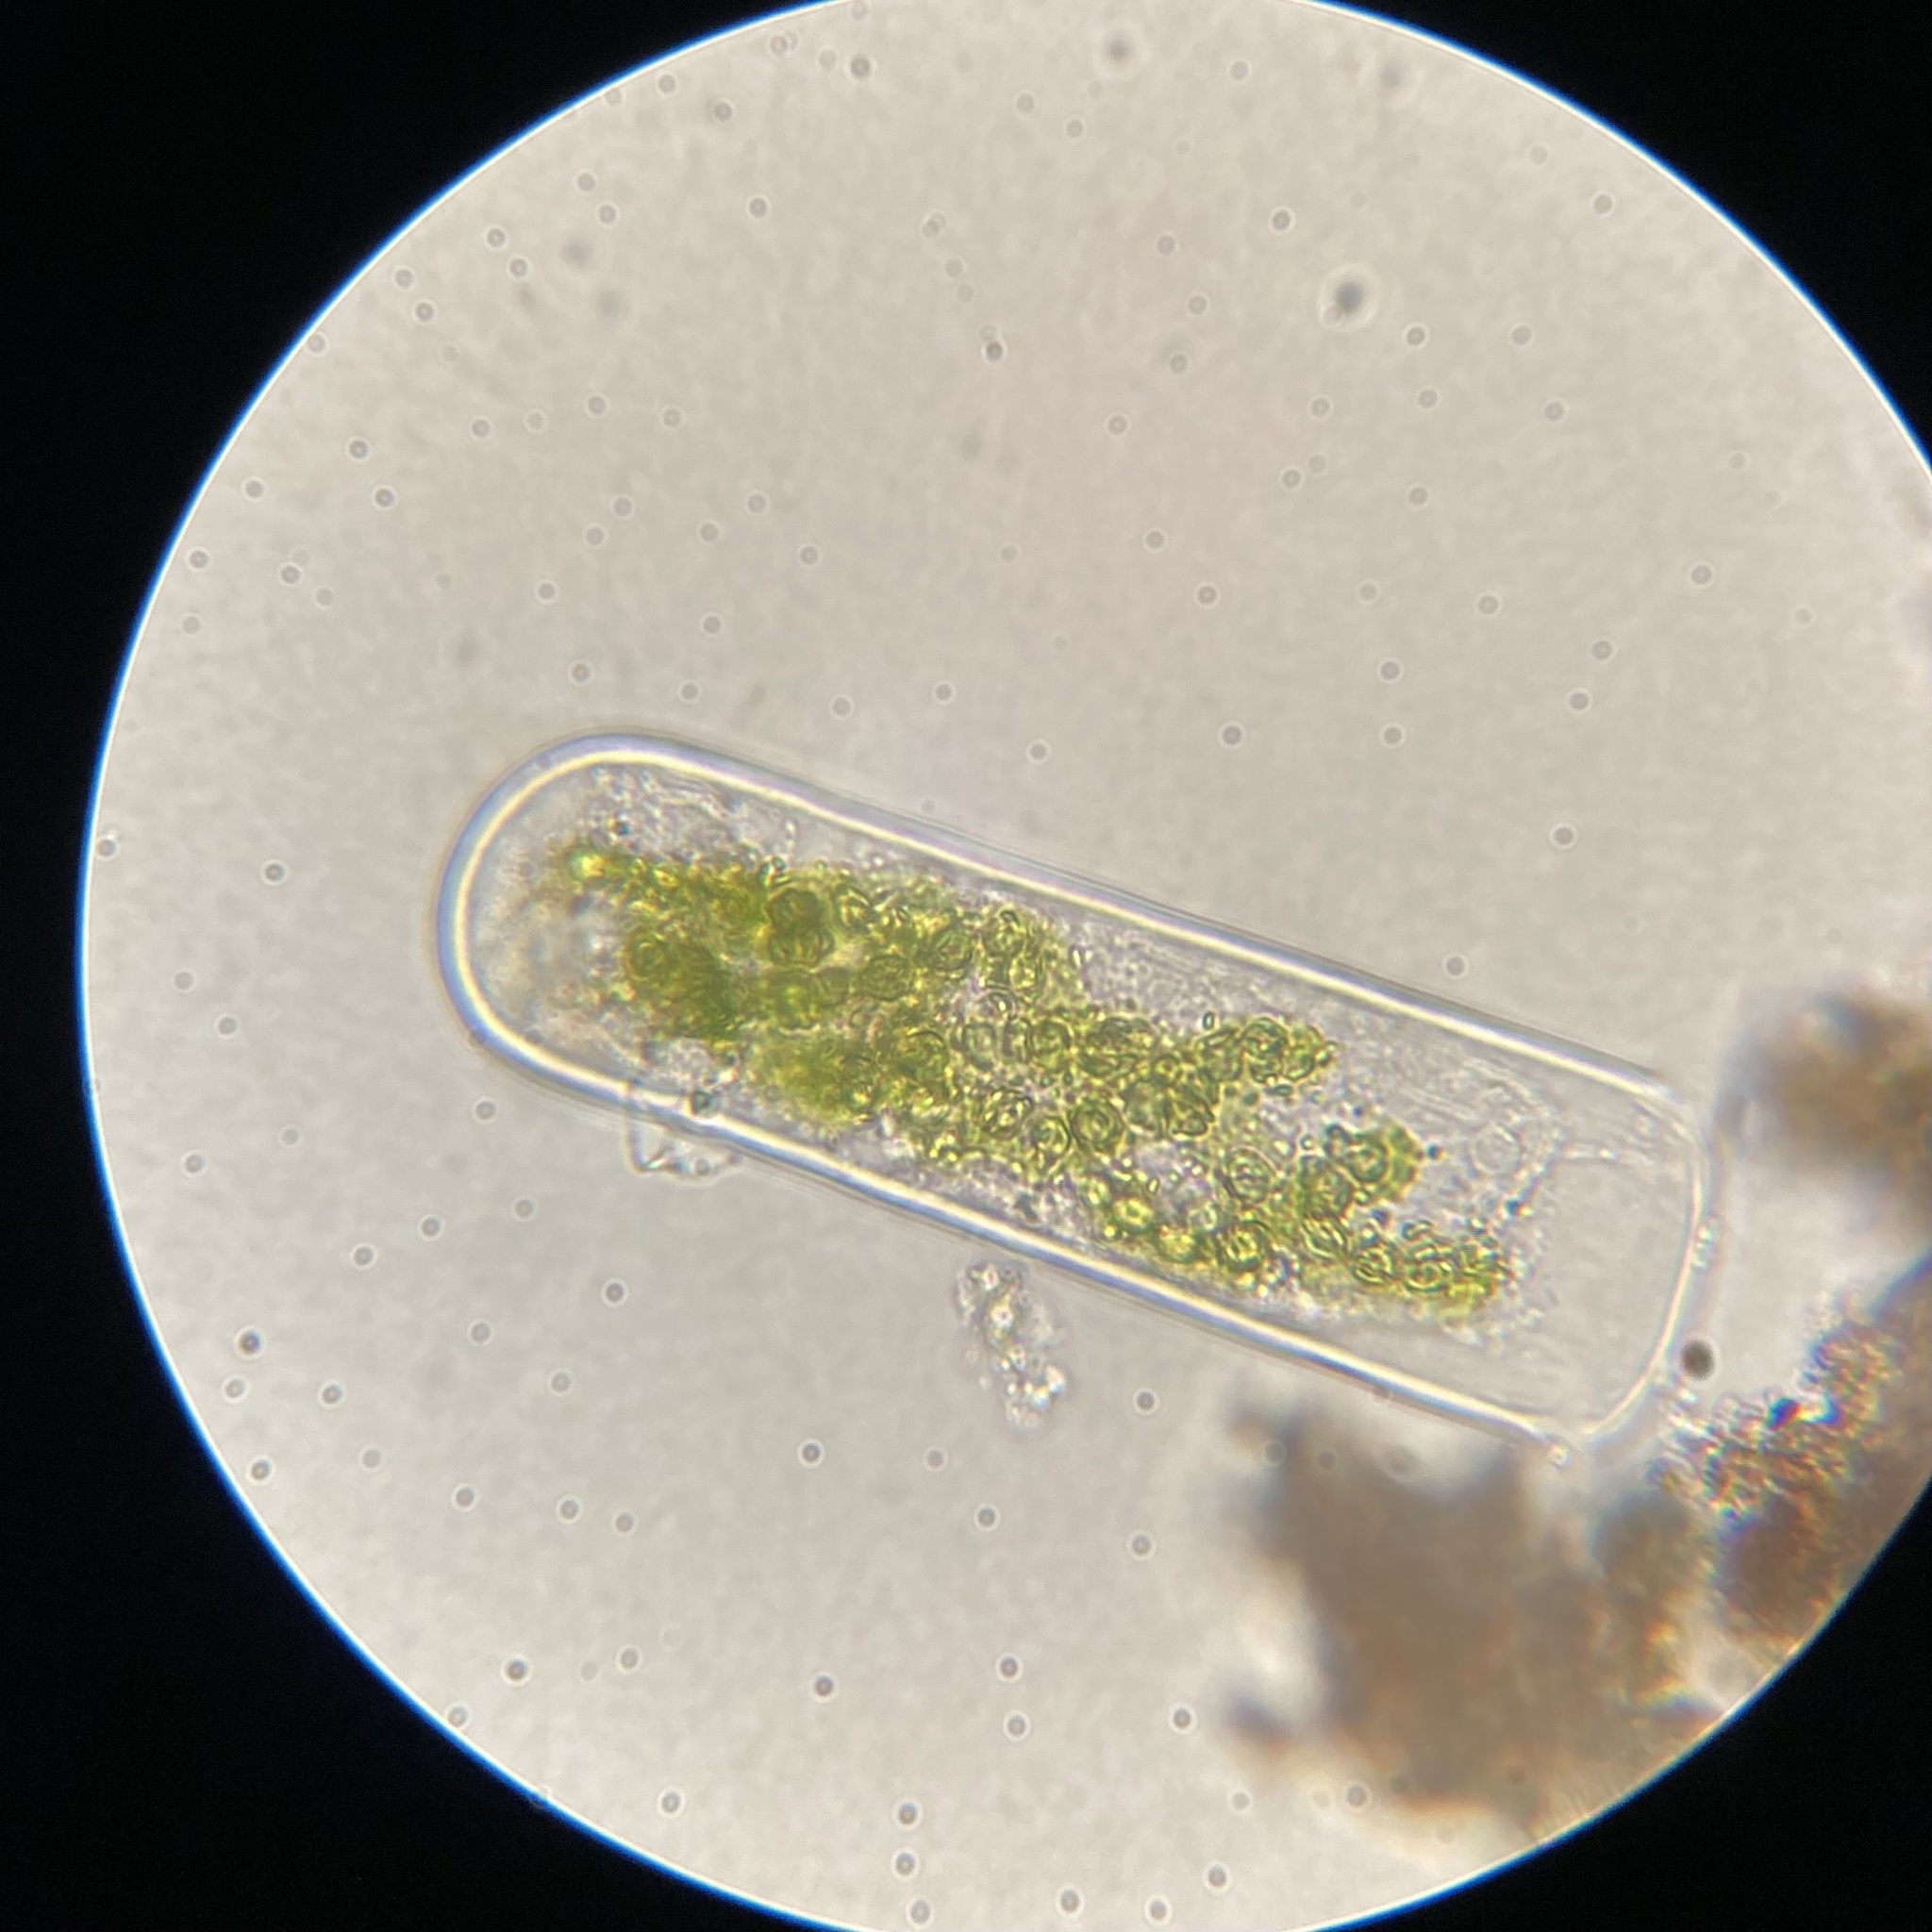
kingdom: Plantae
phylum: Charophyta
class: Zygnematophyceae
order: Zygnematales
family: Zygnemataceae
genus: Spirogyra
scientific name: Spirogyra
